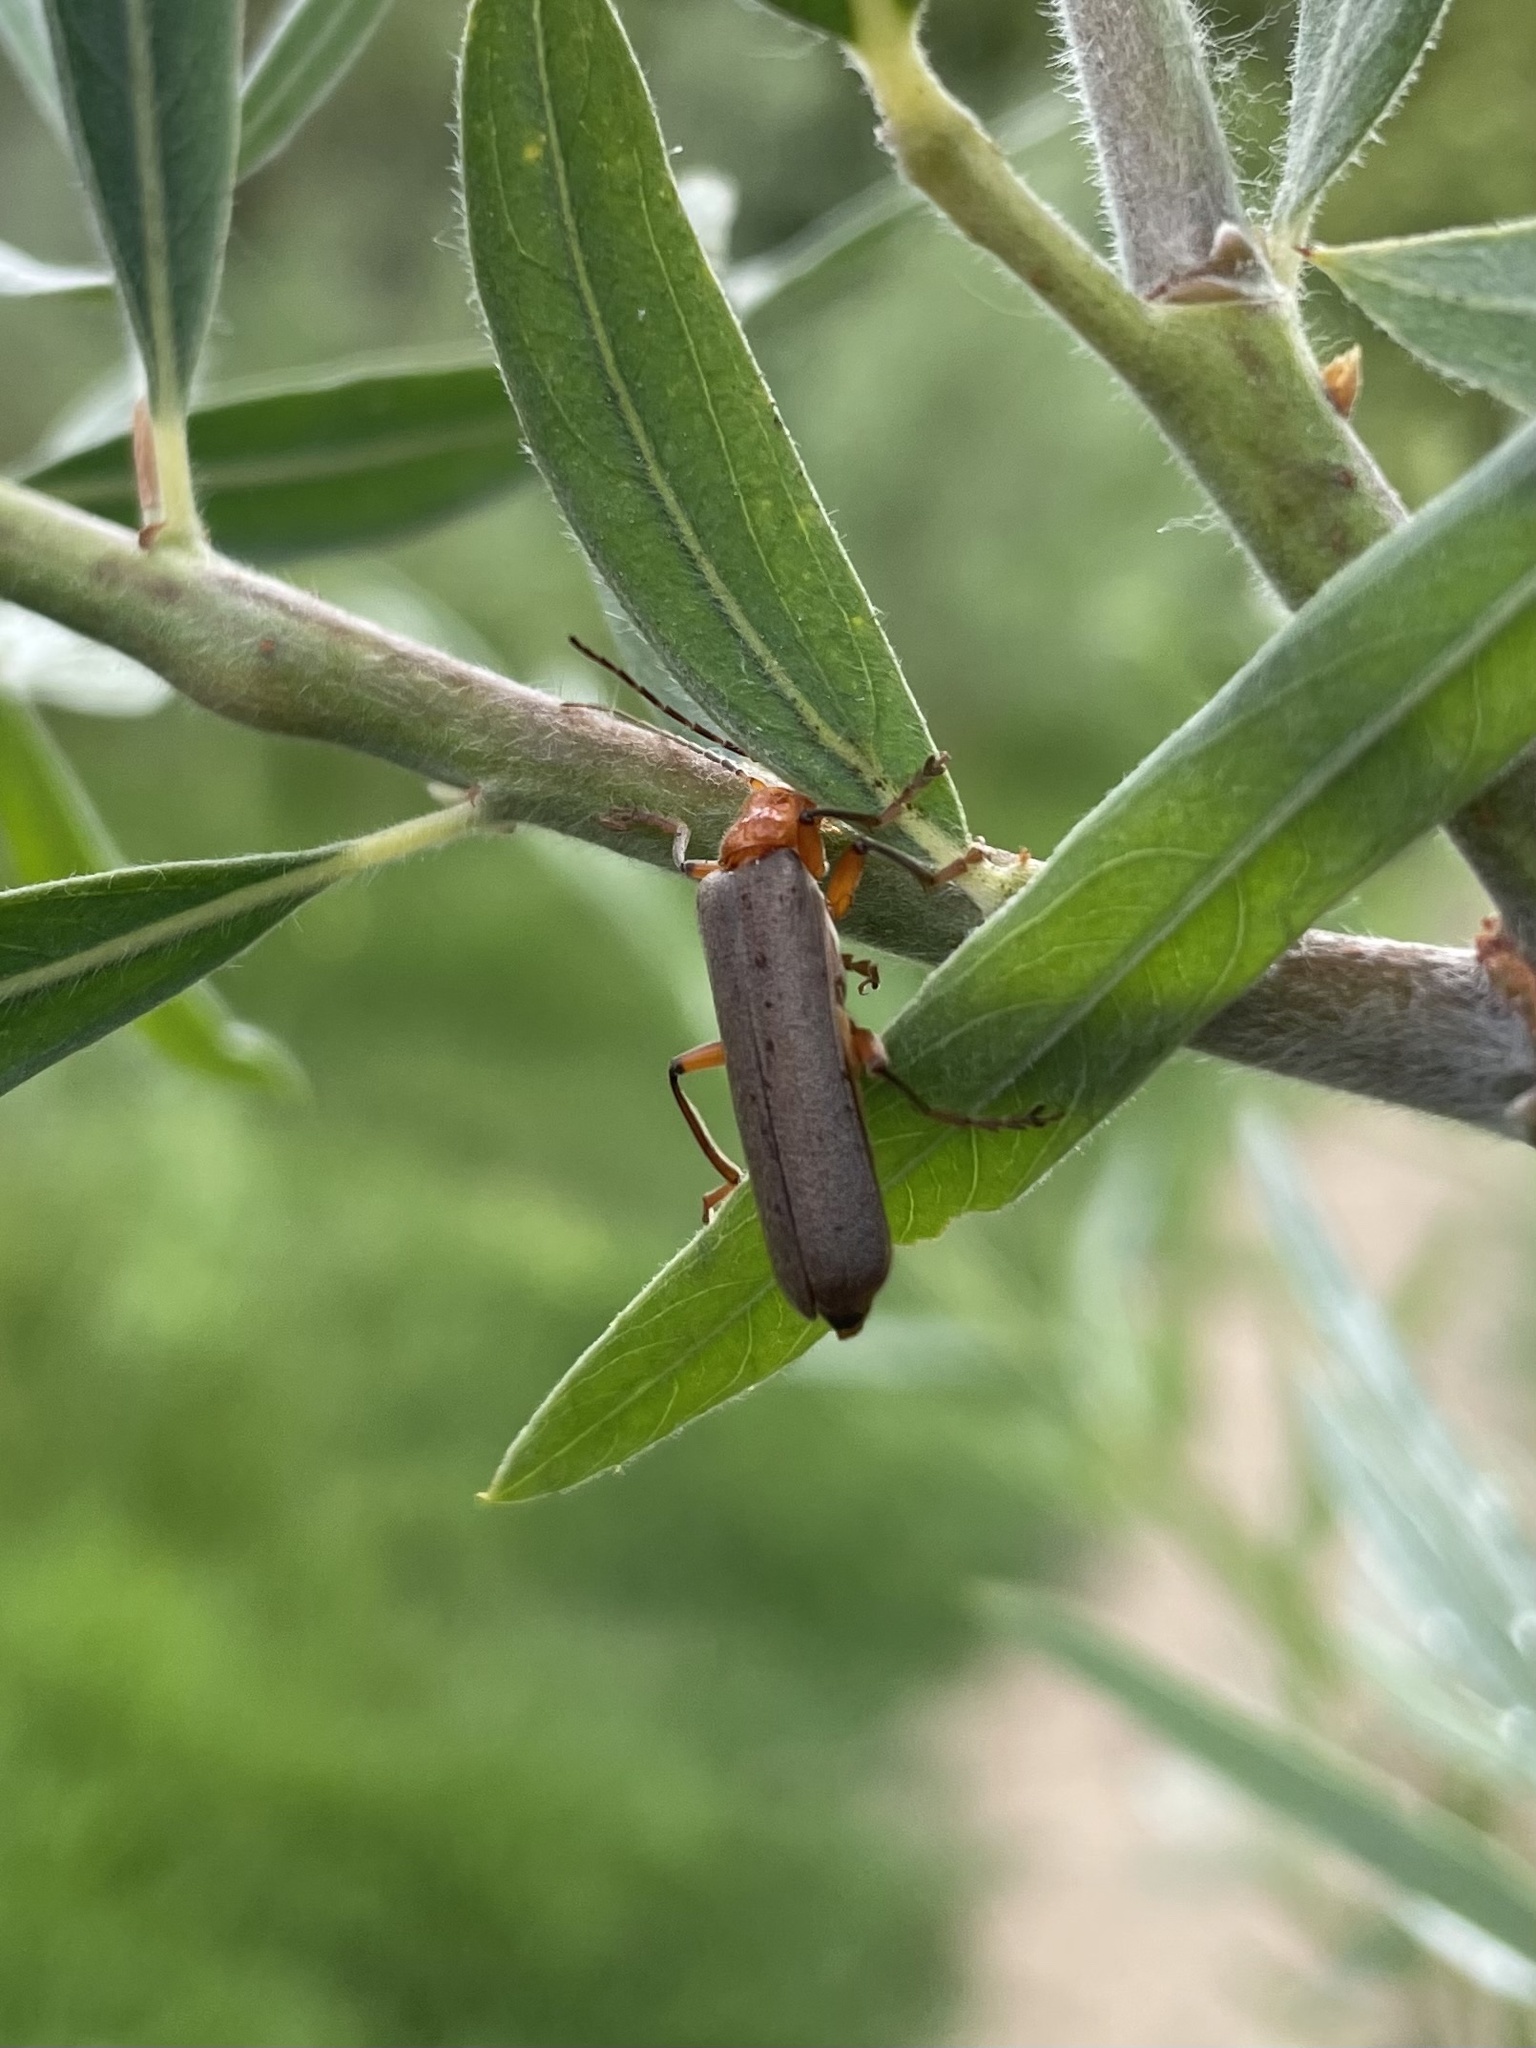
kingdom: Animalia
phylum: Arthropoda
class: Insecta
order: Coleoptera
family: Cantharidae
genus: Pacificanthia
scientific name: Pacificanthia consors
